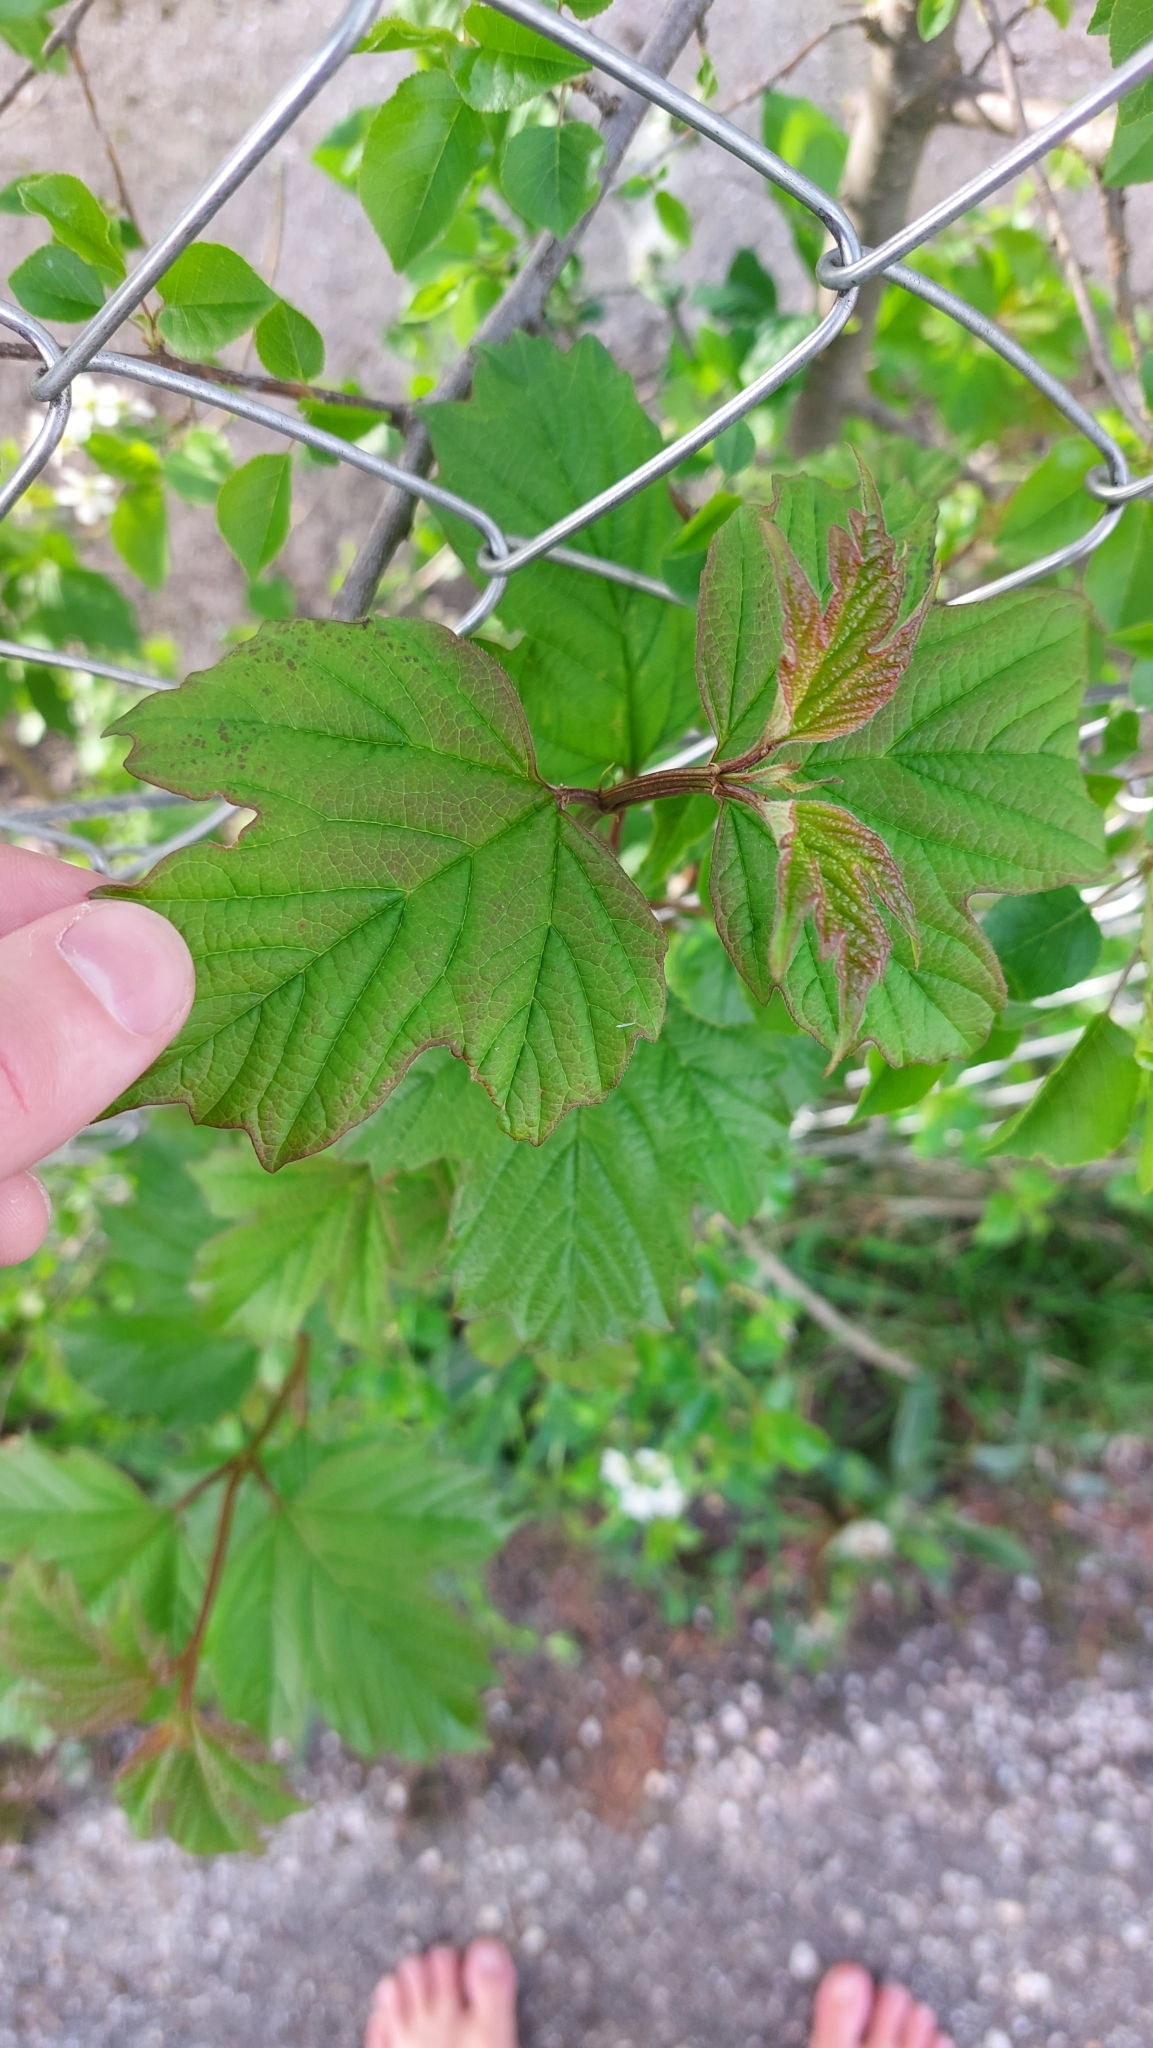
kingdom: Plantae
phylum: Tracheophyta
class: Magnoliopsida
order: Dipsacales
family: Viburnaceae
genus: Viburnum
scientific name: Viburnum opulus
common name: Guelder-rose
